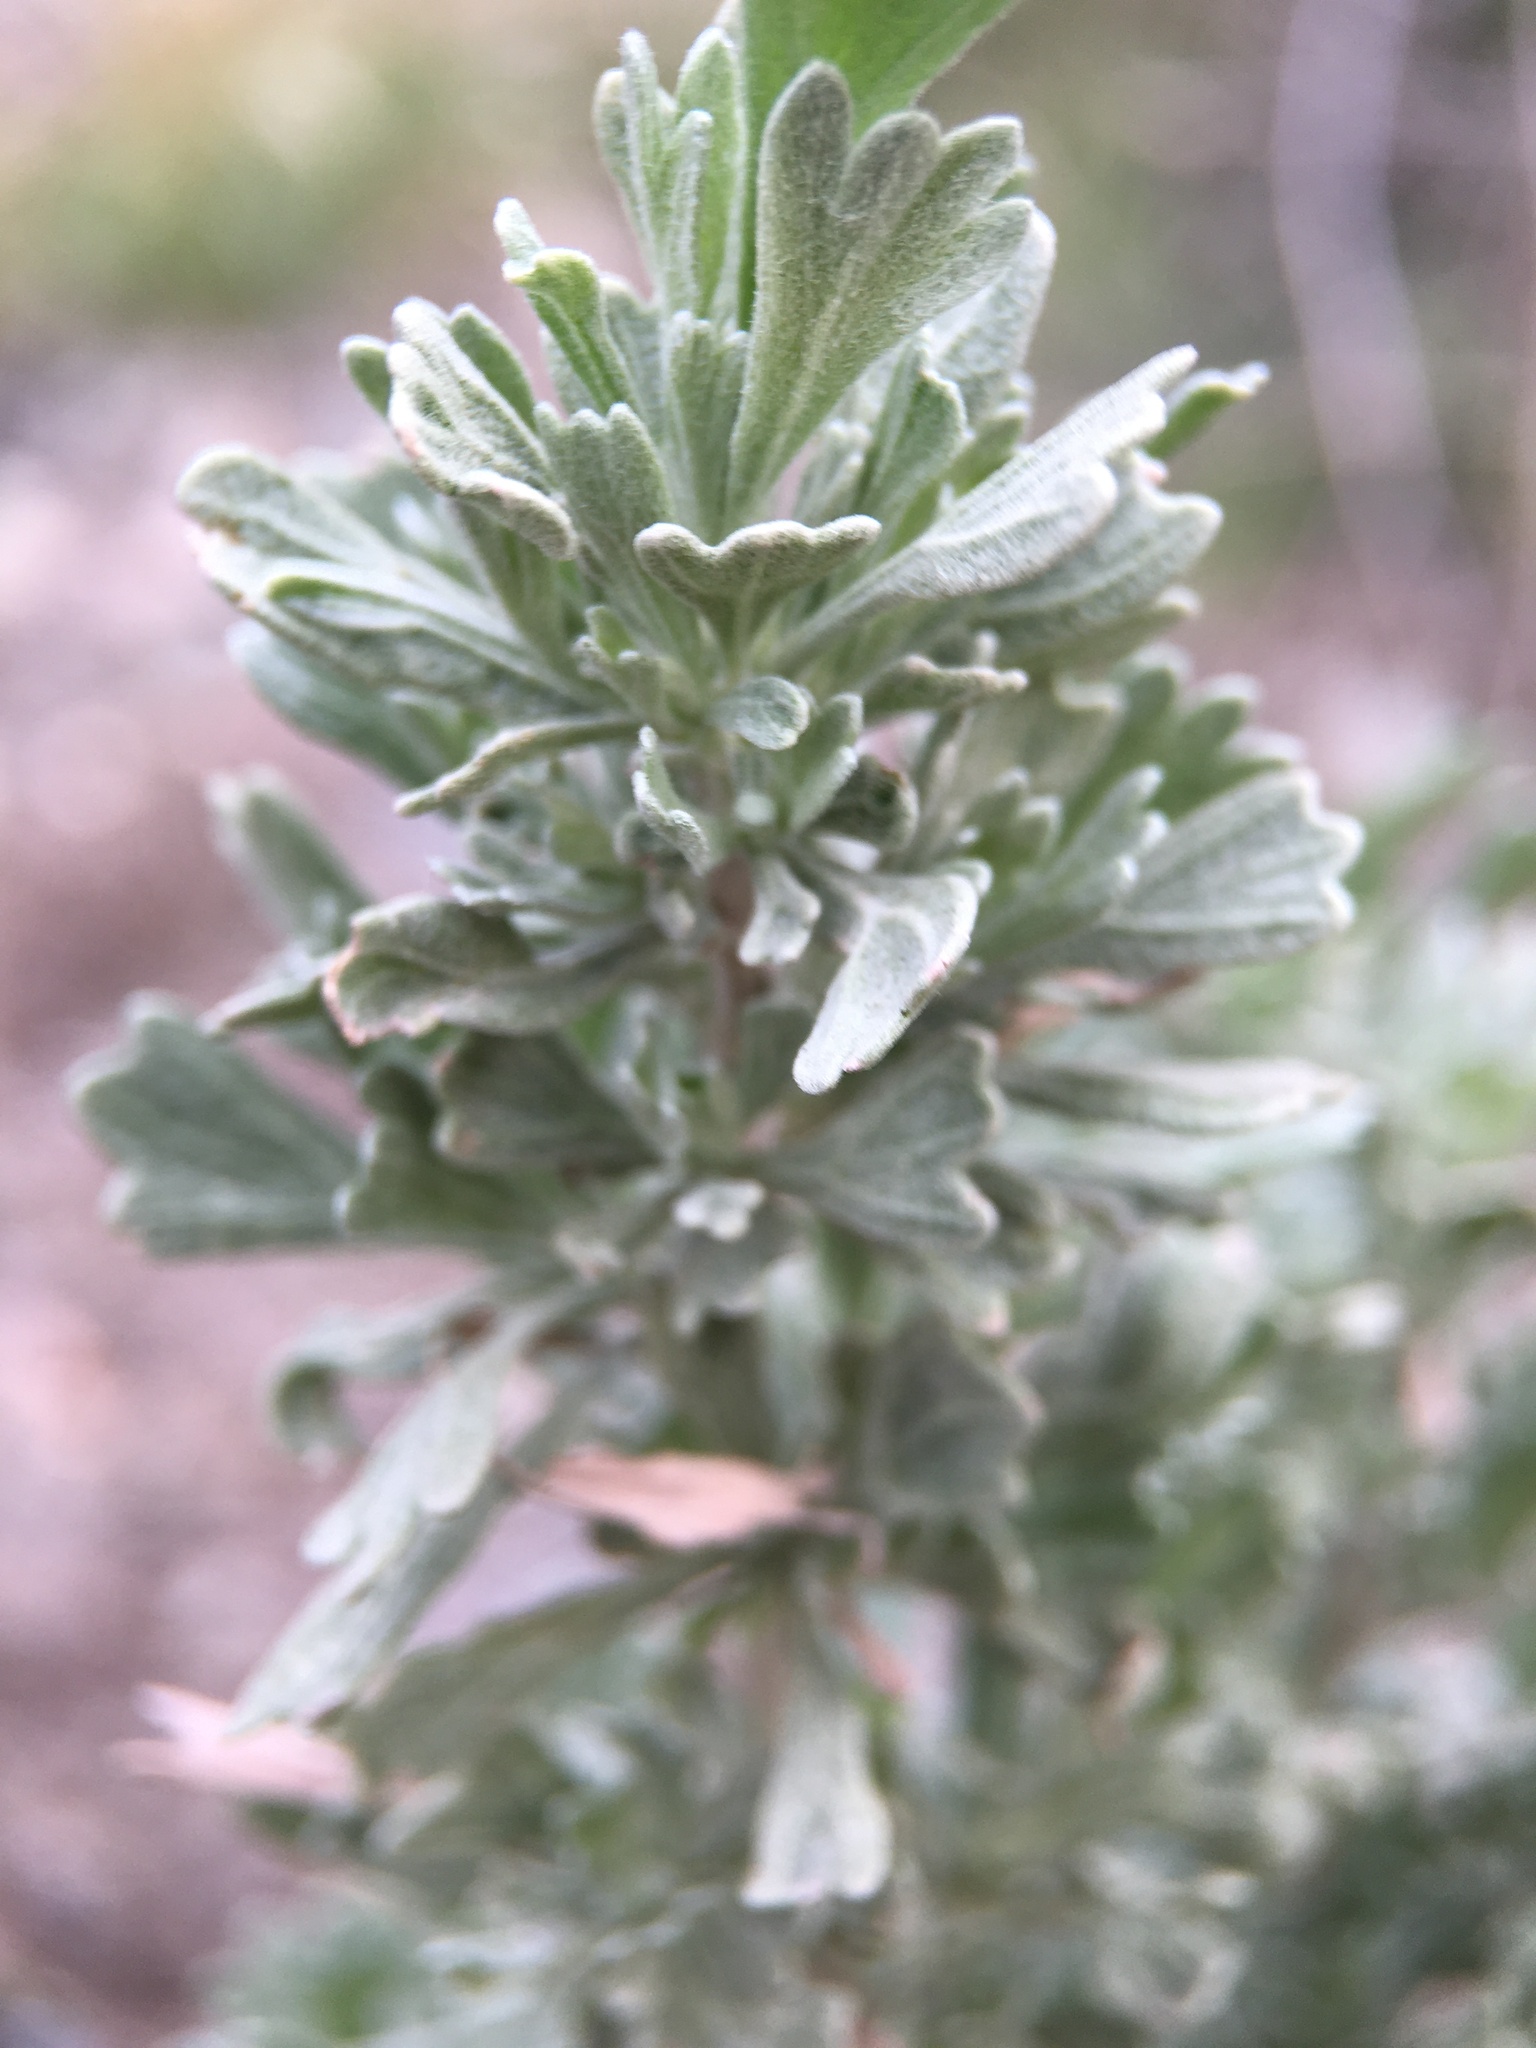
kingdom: Plantae
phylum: Tracheophyta
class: Magnoliopsida
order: Asterales
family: Asteraceae
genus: Artemisia
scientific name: Artemisia tridentata
